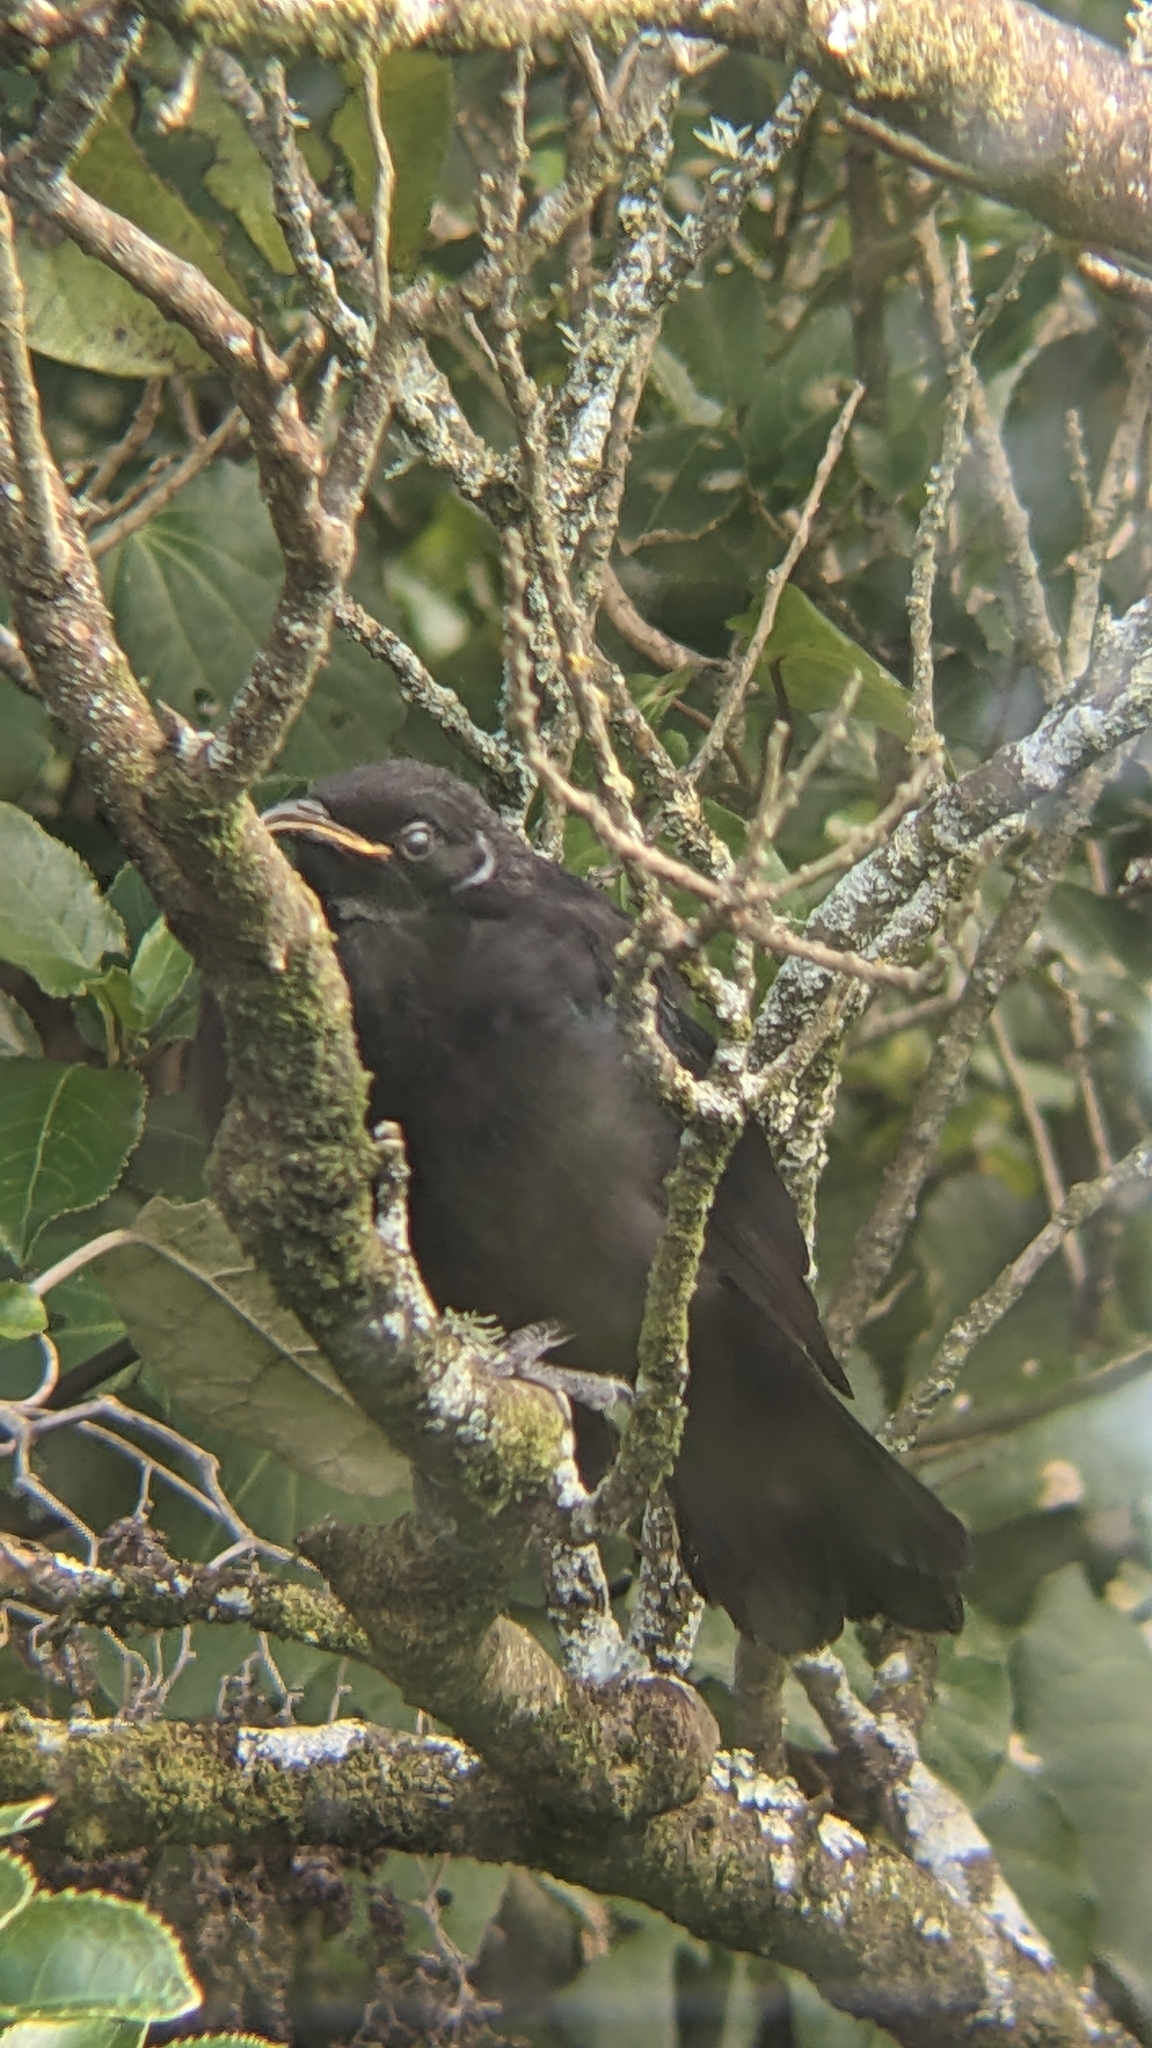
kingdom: Animalia
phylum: Chordata
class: Aves
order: Passeriformes
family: Meliphagidae
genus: Prosthemadera
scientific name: Prosthemadera novaeseelandiae
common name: Tui
